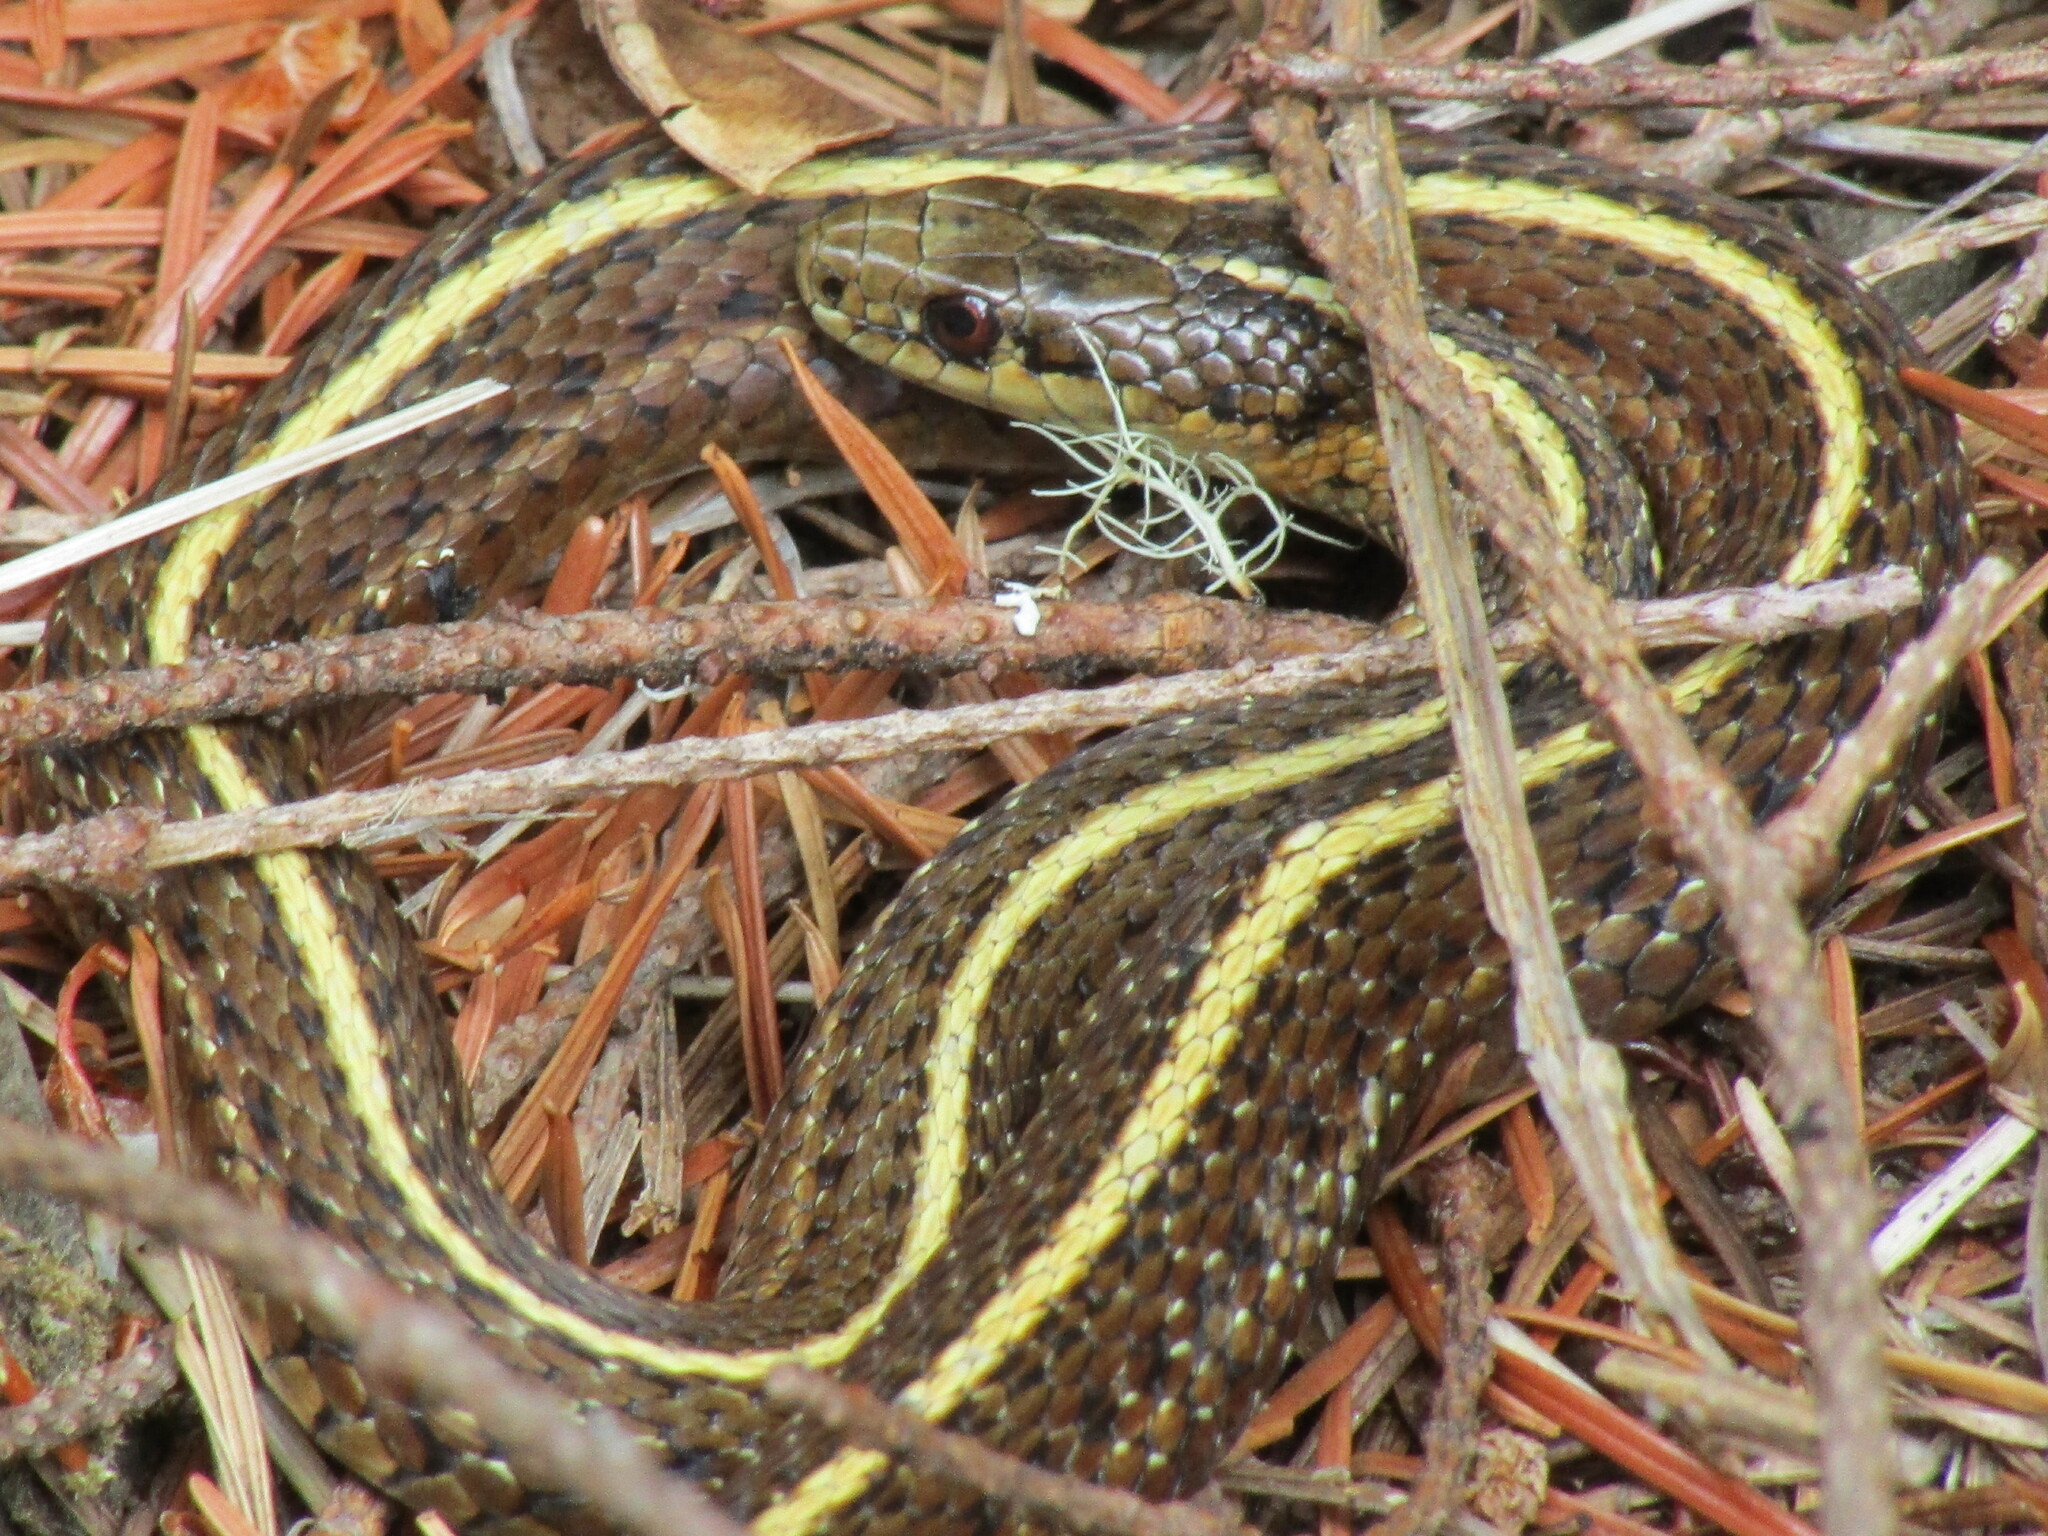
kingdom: Animalia
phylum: Chordata
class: Squamata
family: Colubridae
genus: Thamnophis
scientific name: Thamnophis ordinoides
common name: Northwestern garter snake
